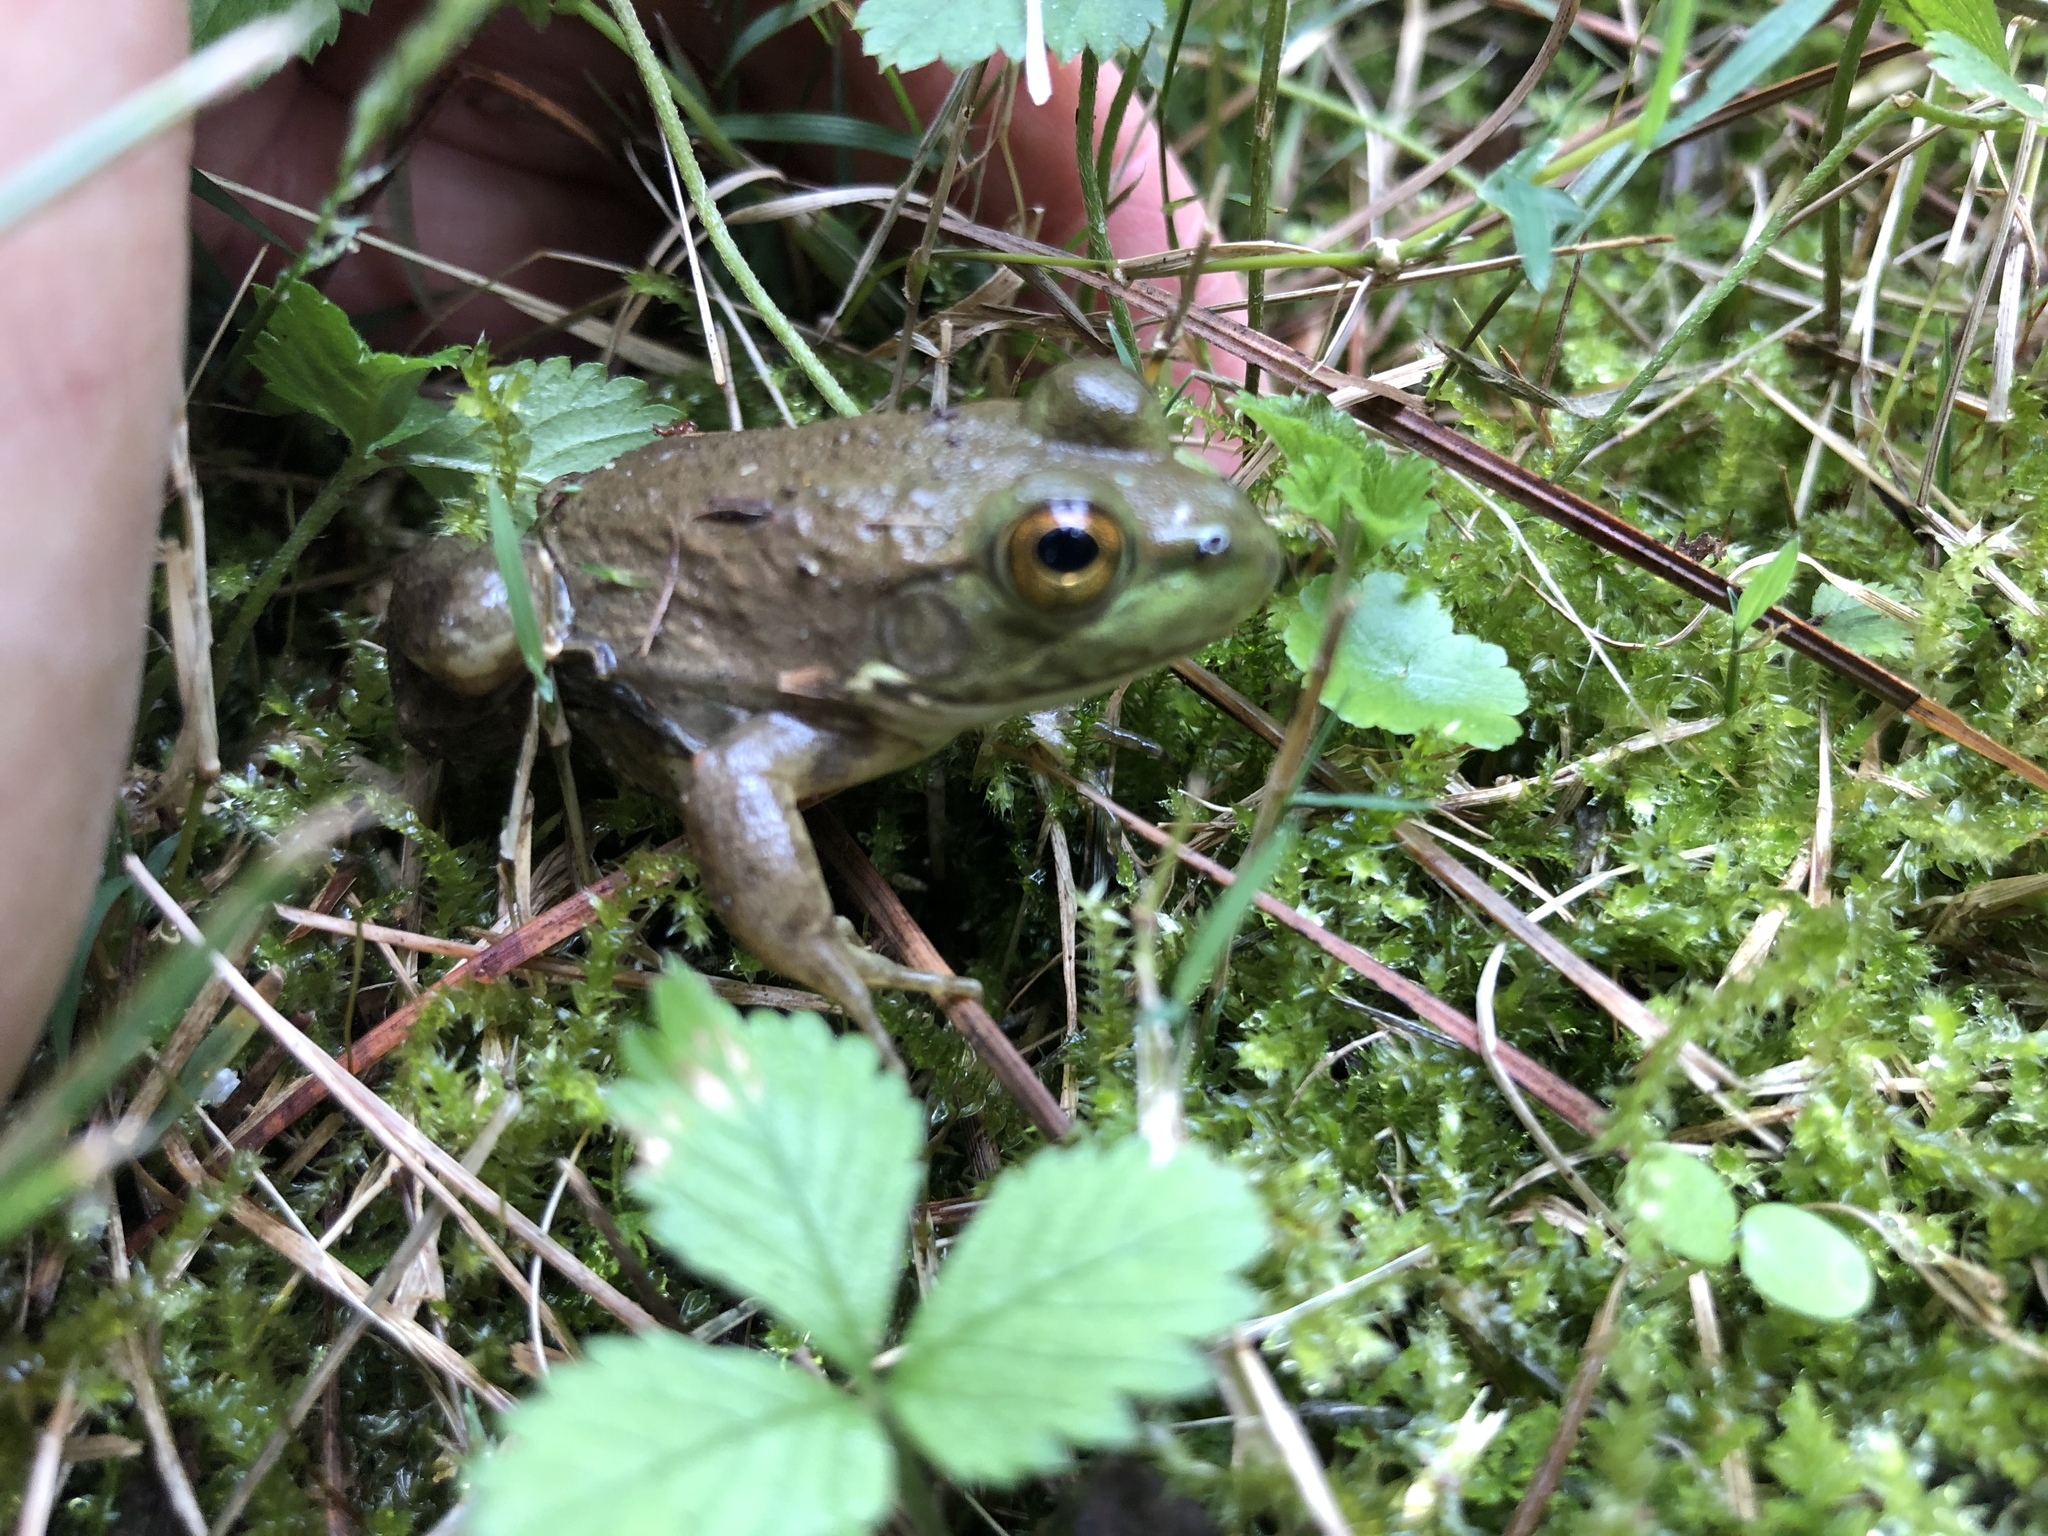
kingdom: Animalia
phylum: Chordata
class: Amphibia
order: Anura
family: Ranidae
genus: Lithobates
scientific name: Lithobates catesbeianus
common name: American bullfrog
